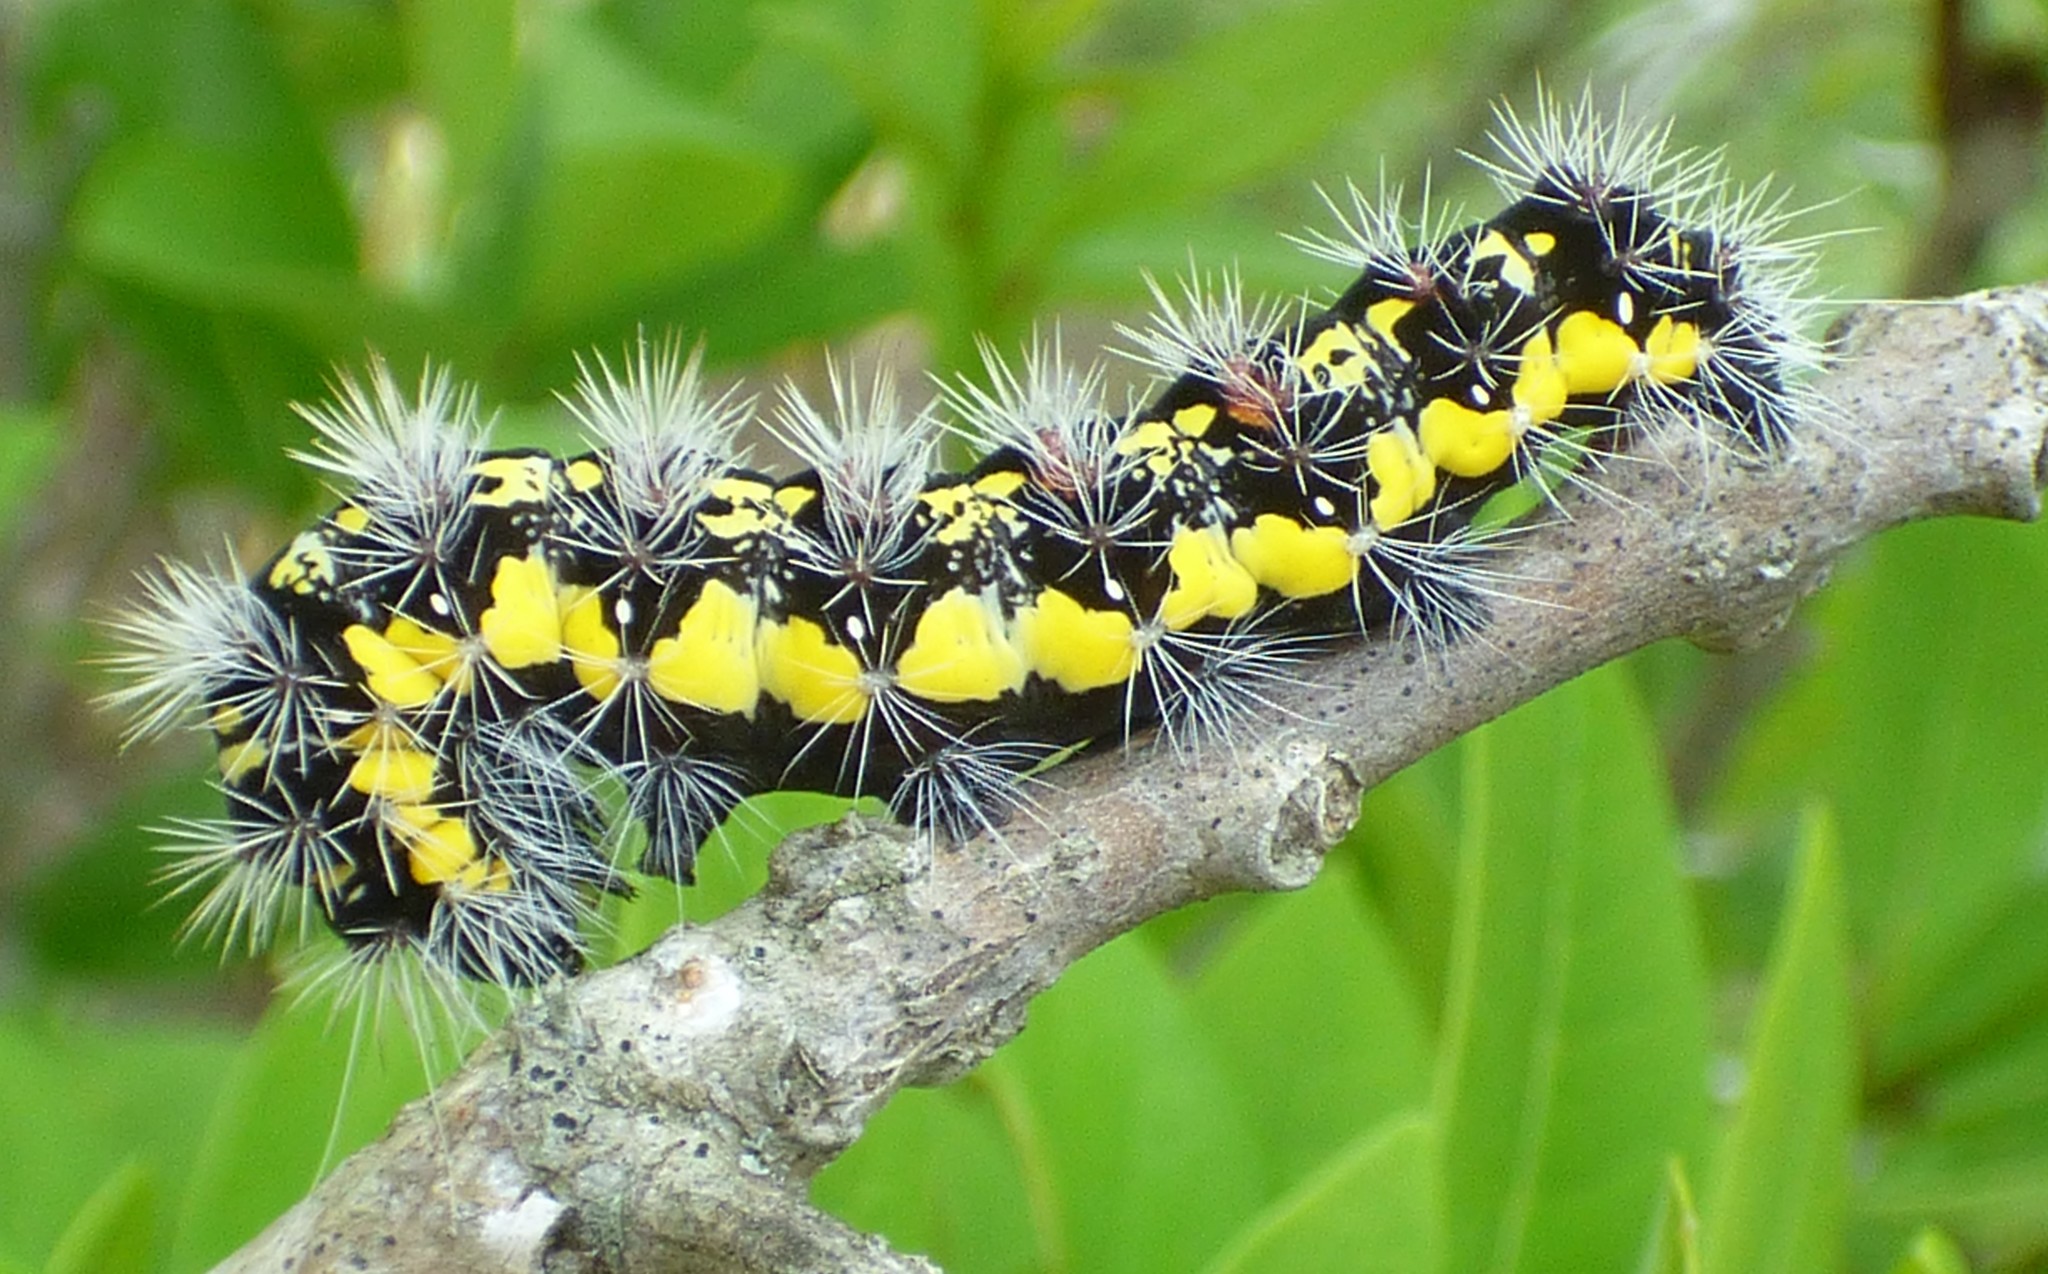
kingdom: Animalia
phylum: Arthropoda
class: Insecta
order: Lepidoptera
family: Noctuidae
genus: Acronicta
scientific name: Acronicta oblinita
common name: Smeared dagger
